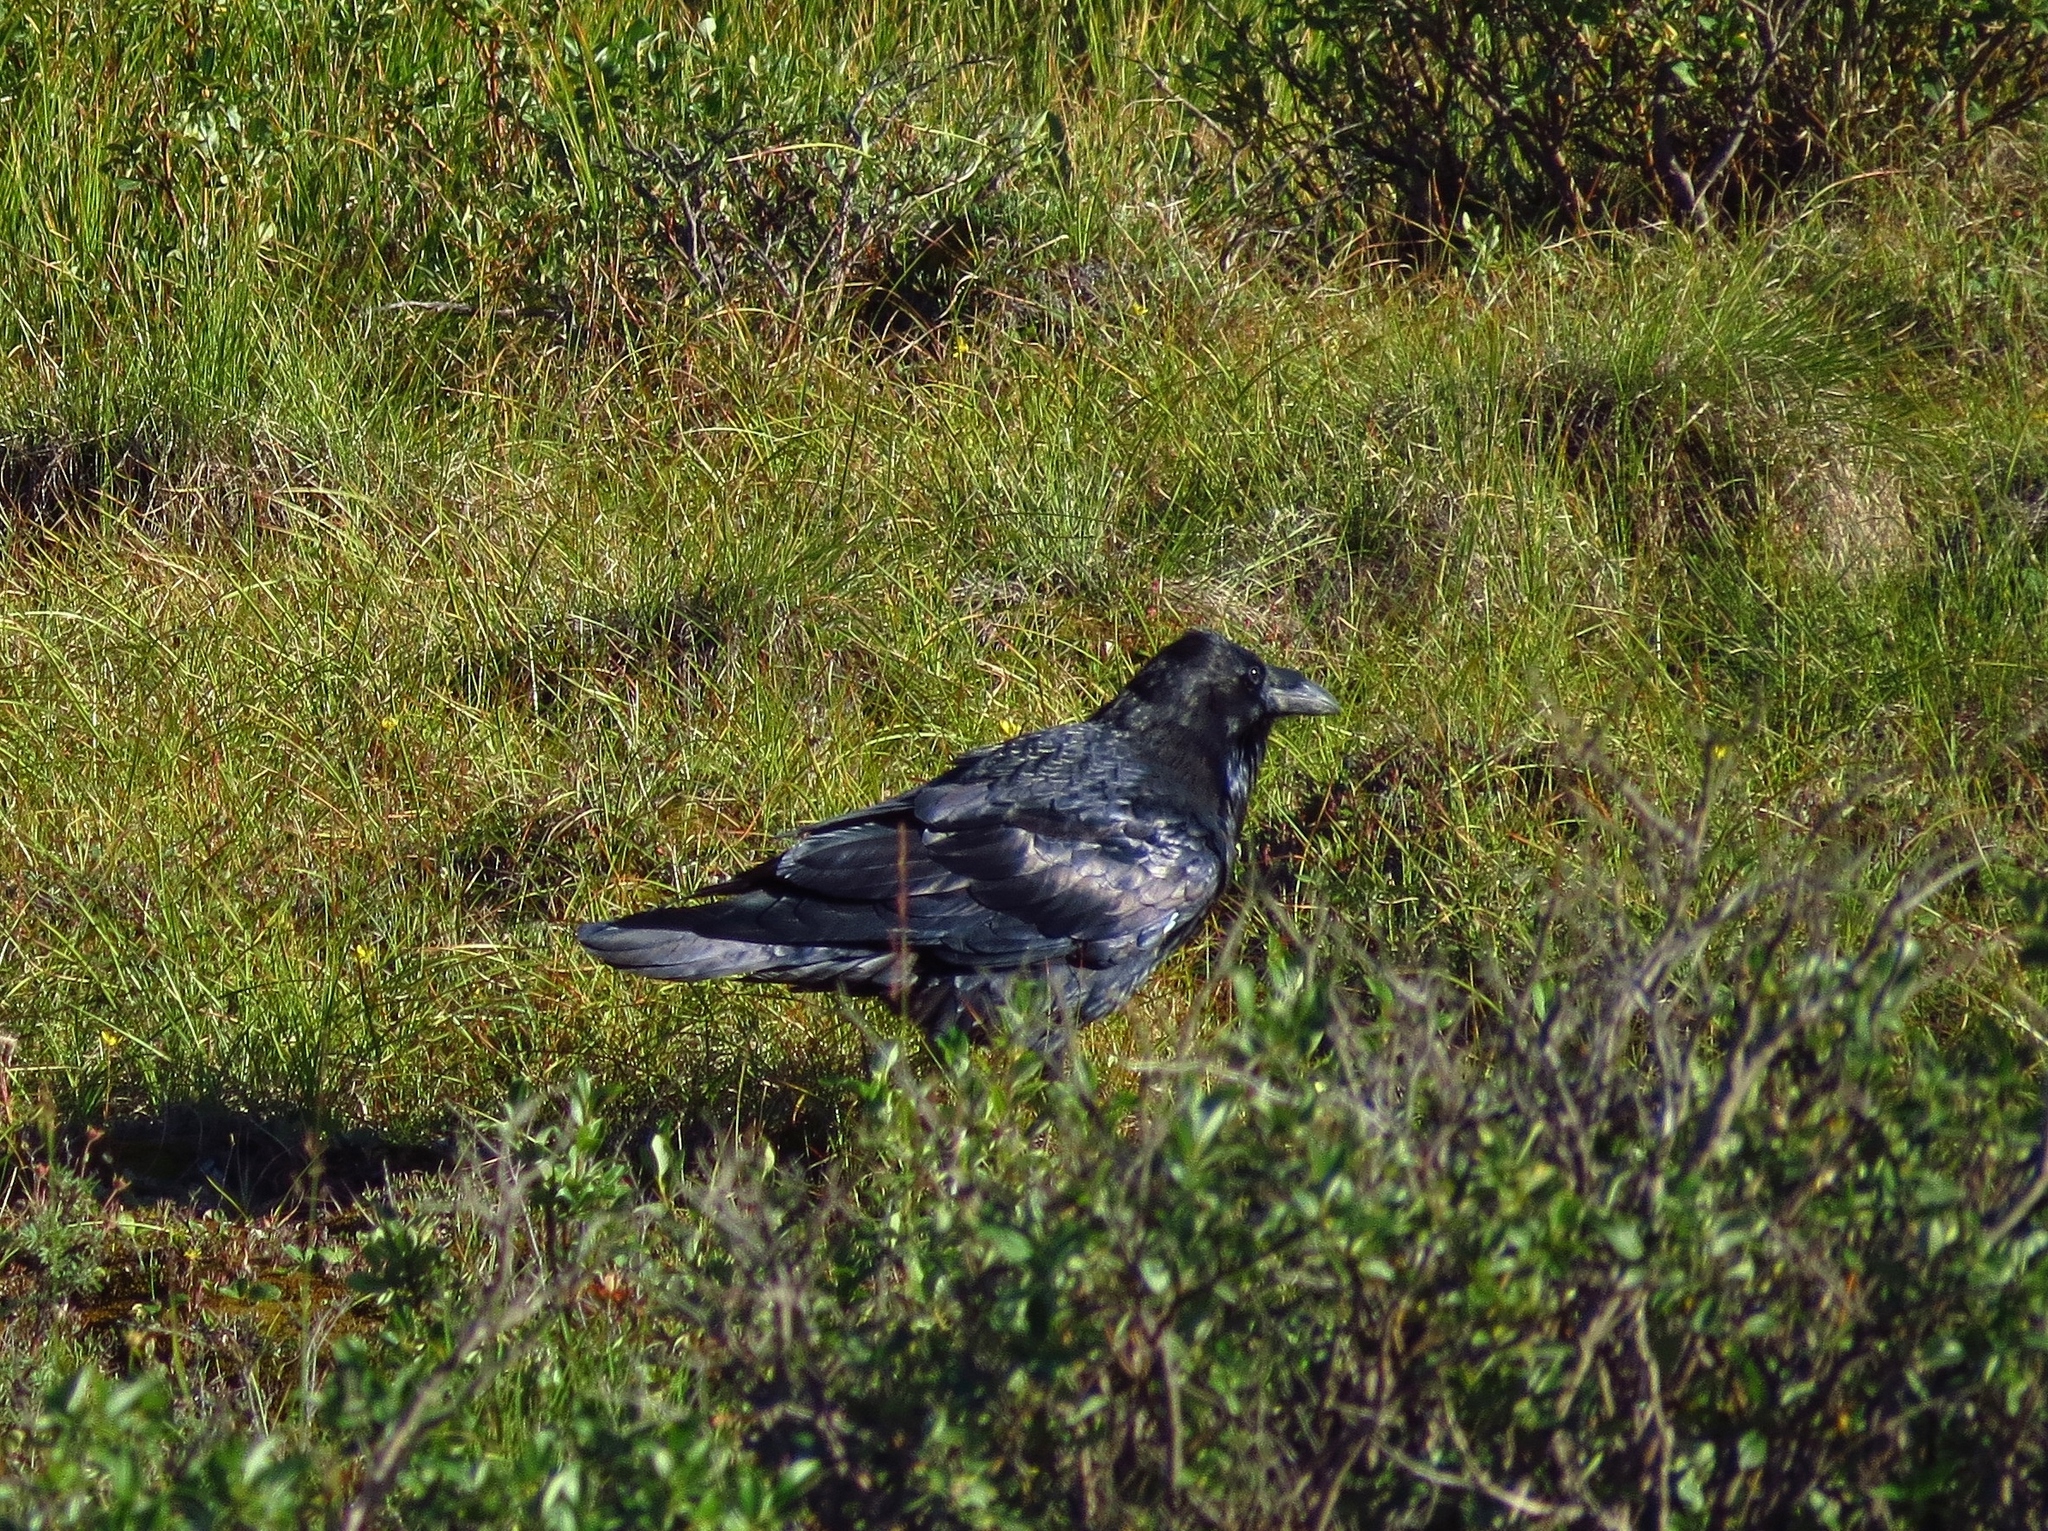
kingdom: Animalia
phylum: Chordata
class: Aves
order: Passeriformes
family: Corvidae
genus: Corvus
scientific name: Corvus corax
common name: Common raven
